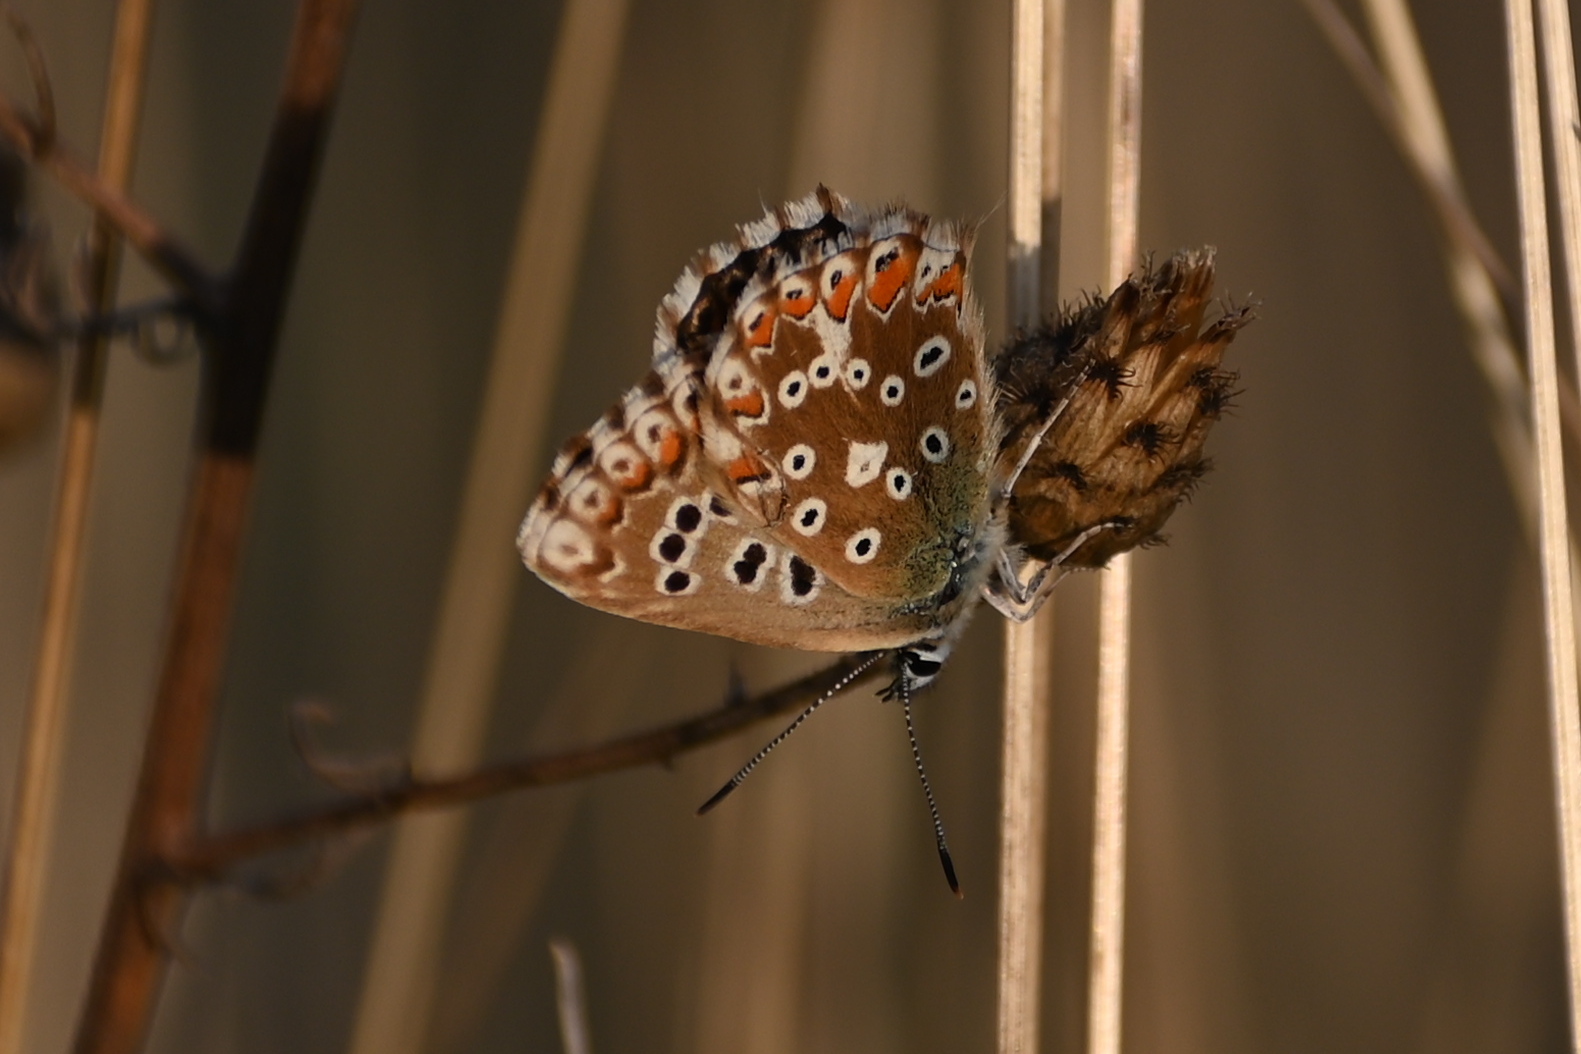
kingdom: Animalia
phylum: Arthropoda
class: Insecta
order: Lepidoptera
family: Lycaenidae
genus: Lysandra
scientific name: Lysandra coridon
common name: Chalkhill blue
